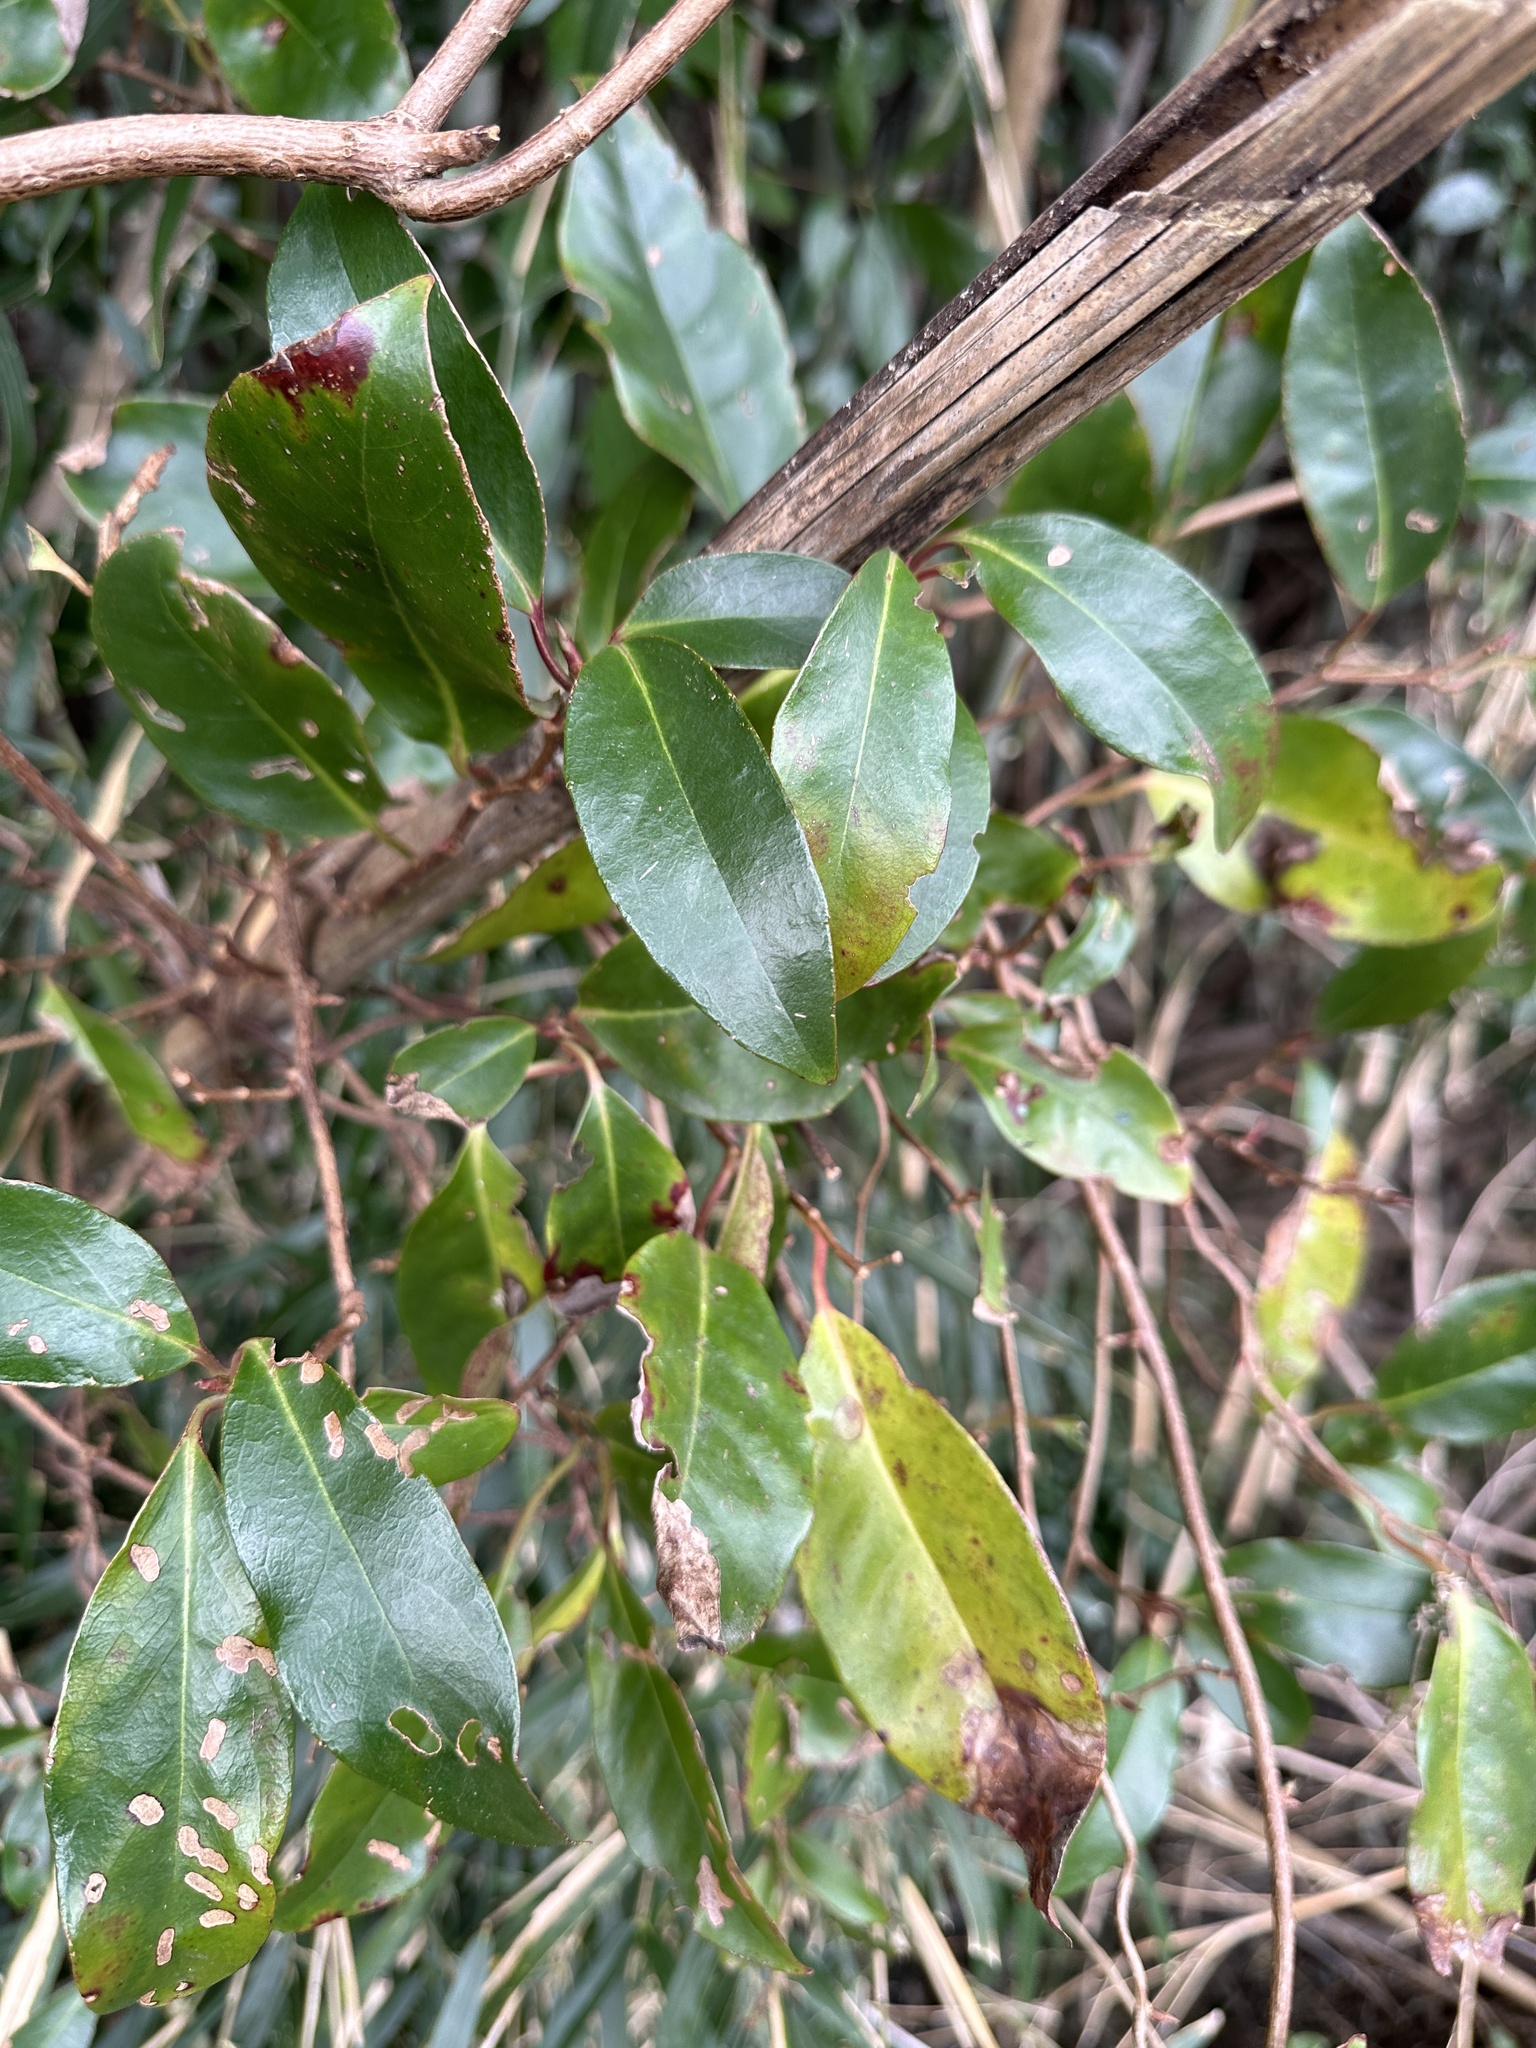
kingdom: Plantae
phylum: Tracheophyta
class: Magnoliopsida
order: Austrobaileyales
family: Schisandraceae
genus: Kadsura
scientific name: Kadsura japonica
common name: Japanese kadsura
